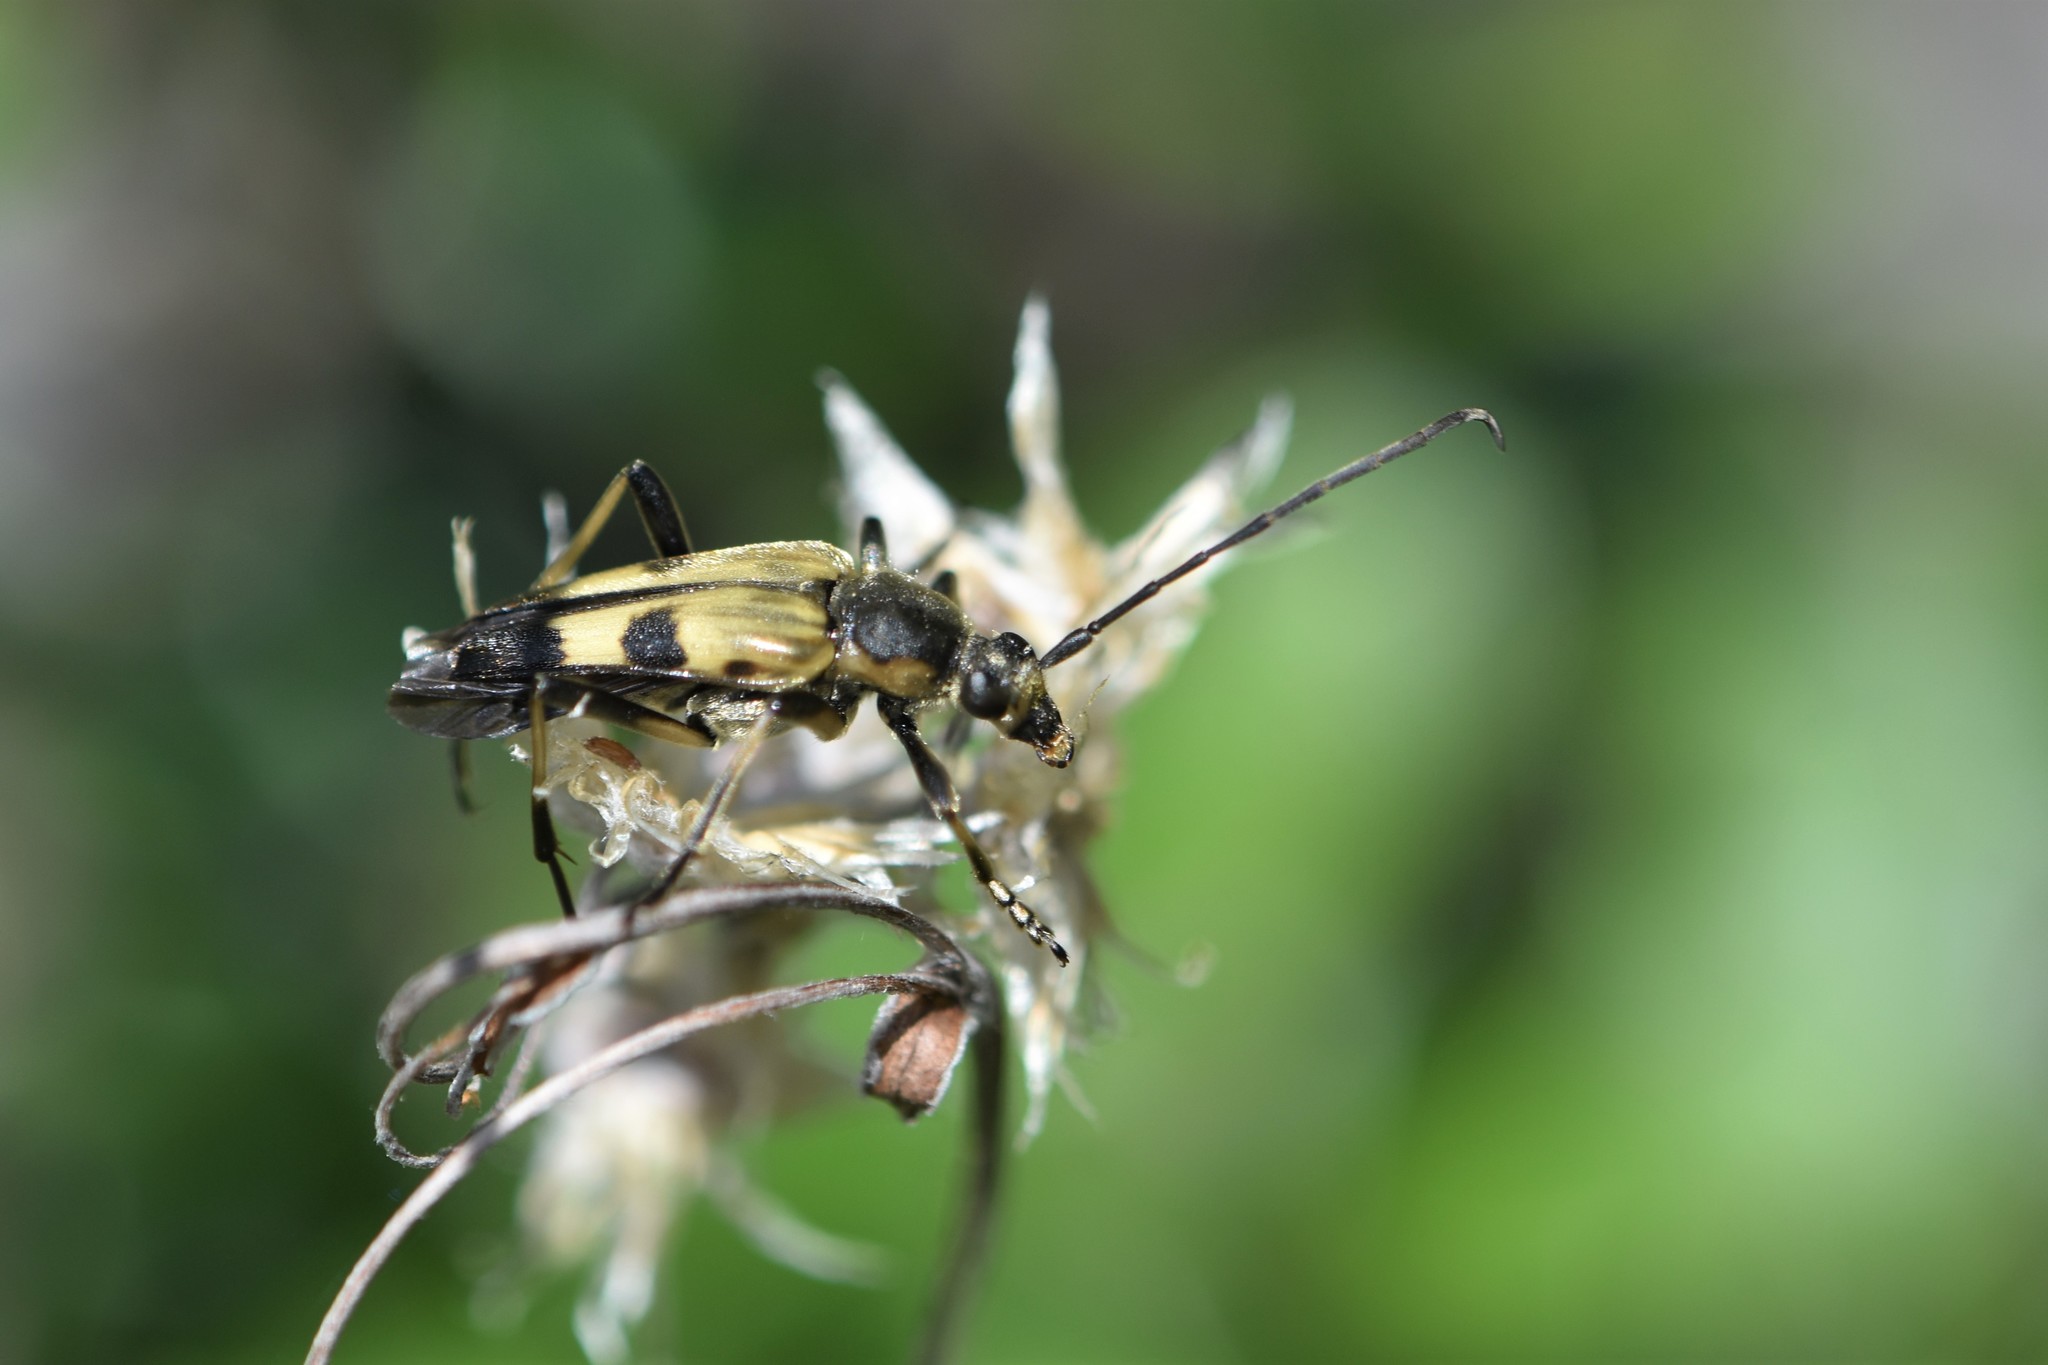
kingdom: Animalia
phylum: Arthropoda
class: Insecta
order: Coleoptera
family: Cerambycidae
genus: Etorofus
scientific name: Etorofus obliteratus
